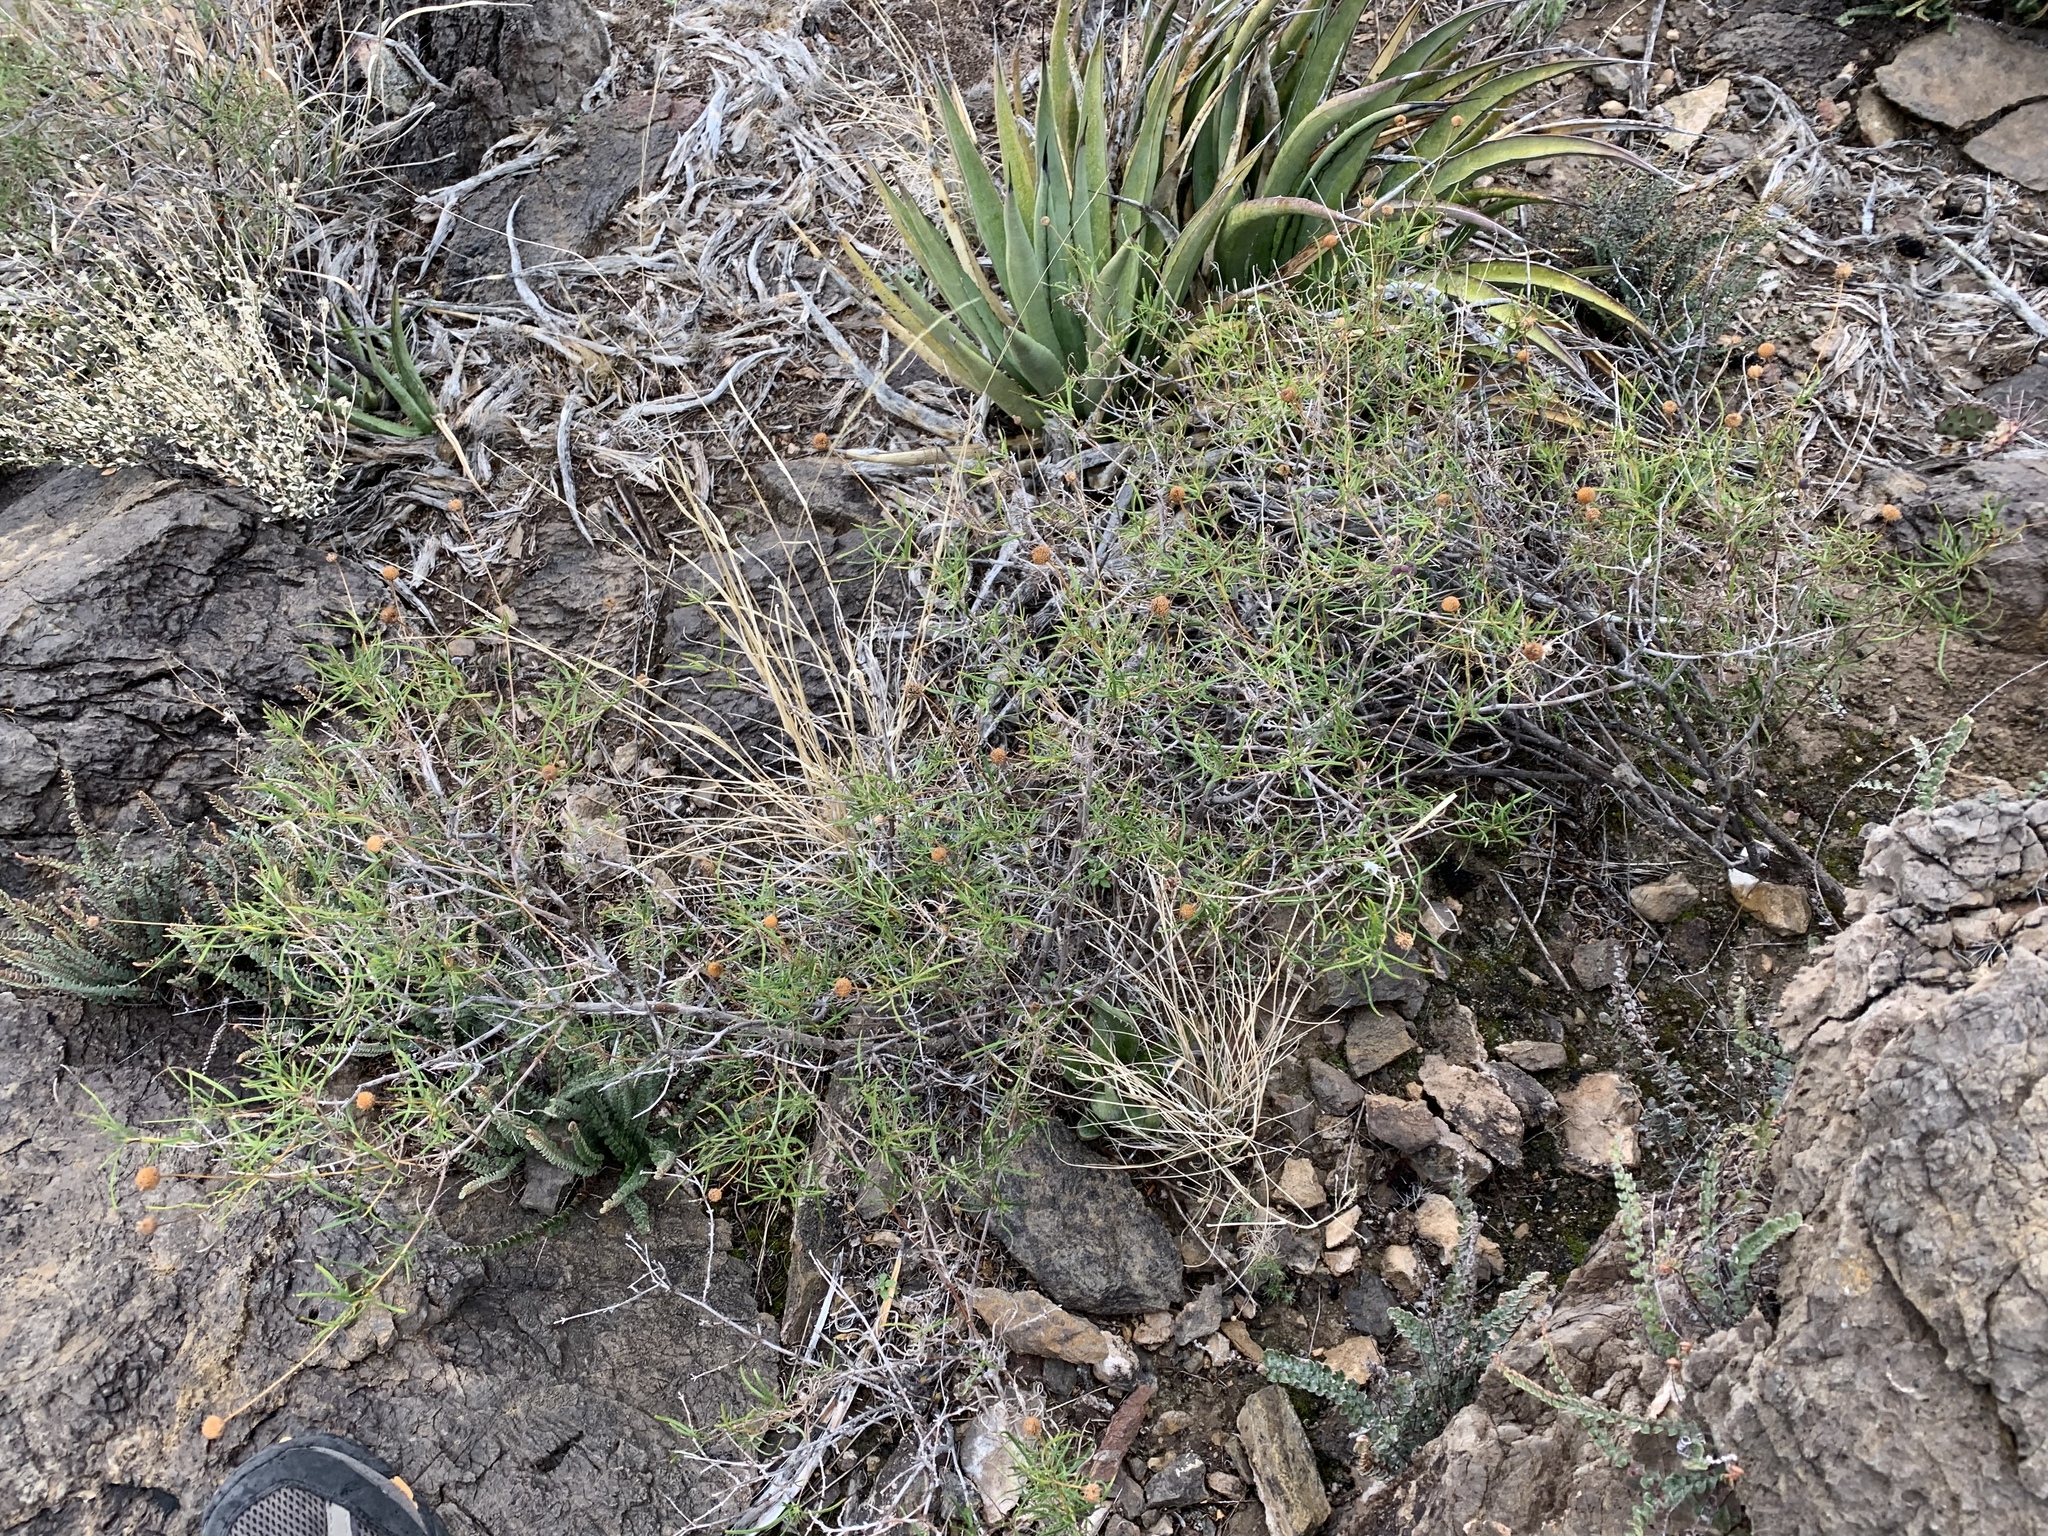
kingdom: Plantae
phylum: Tracheophyta
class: Magnoliopsida
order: Asterales
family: Asteraceae
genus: Sidneya
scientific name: Sidneya tenuifolia
